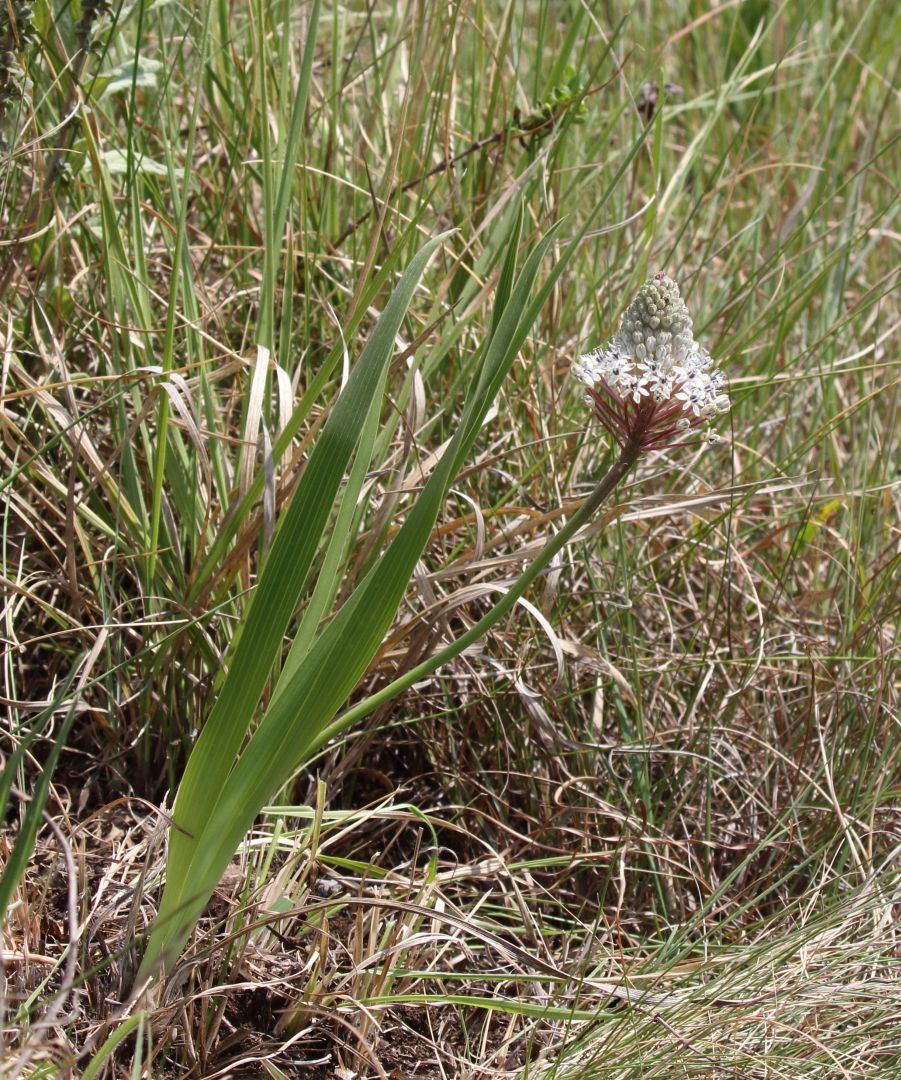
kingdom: Plantae
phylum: Tracheophyta
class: Liliopsida
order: Asparagales
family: Asparagaceae
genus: Schizocarphus
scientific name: Schizocarphus nervosus
